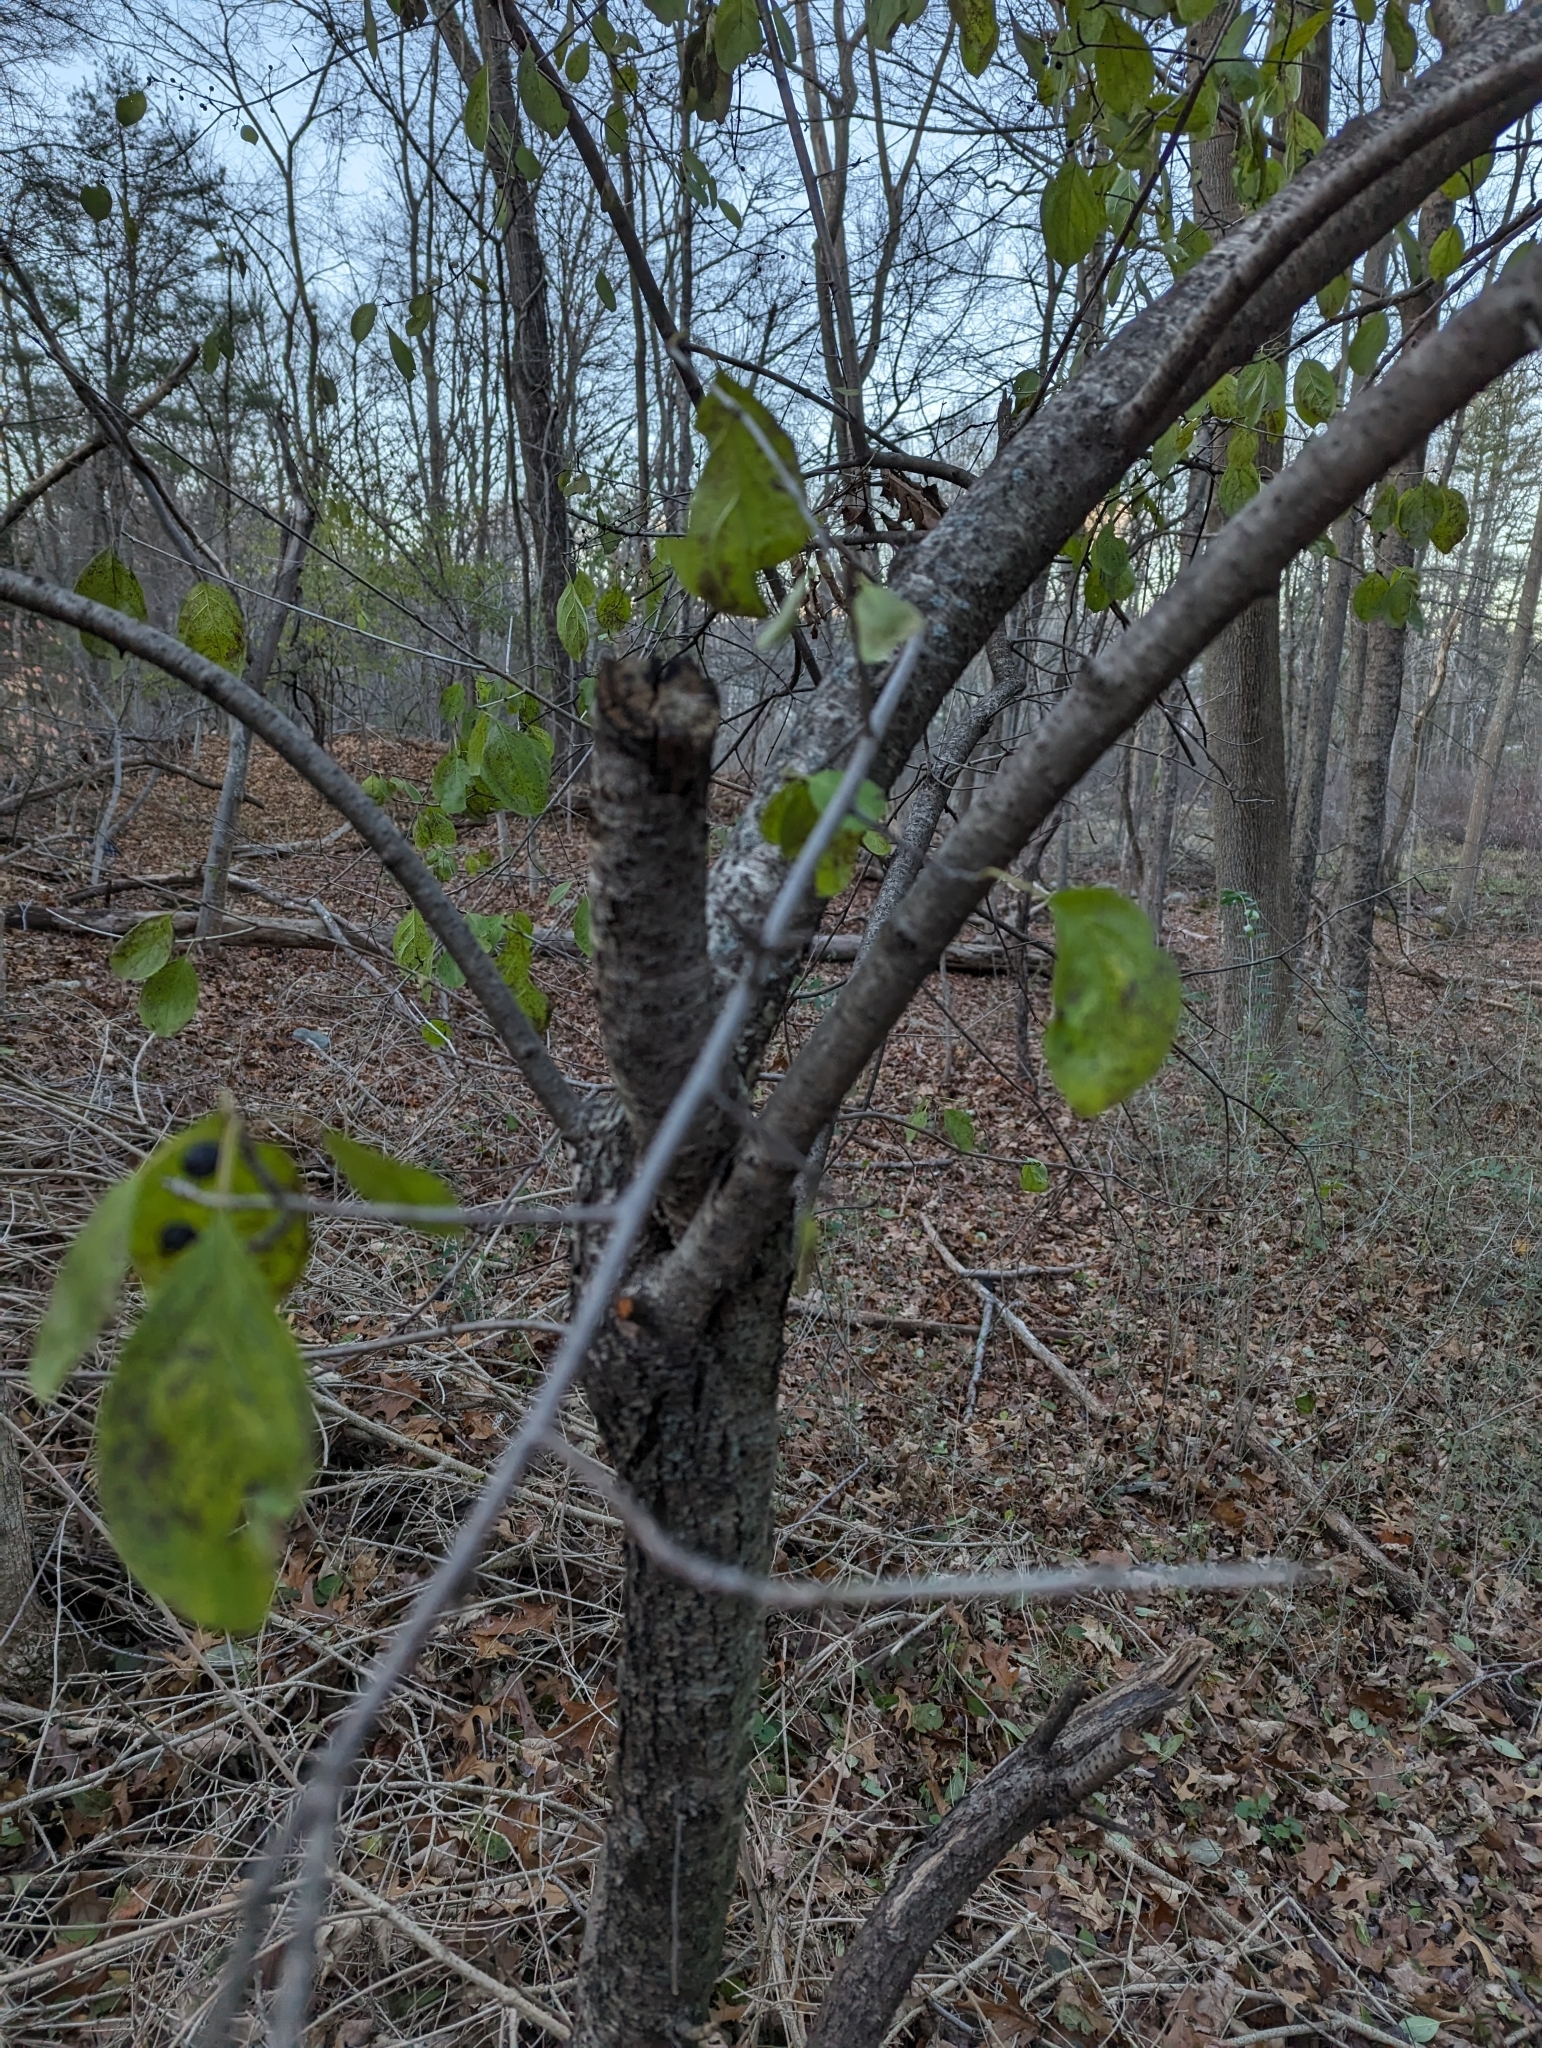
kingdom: Plantae
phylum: Tracheophyta
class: Magnoliopsida
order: Rosales
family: Rhamnaceae
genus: Rhamnus
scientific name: Rhamnus cathartica
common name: Common buckthorn
